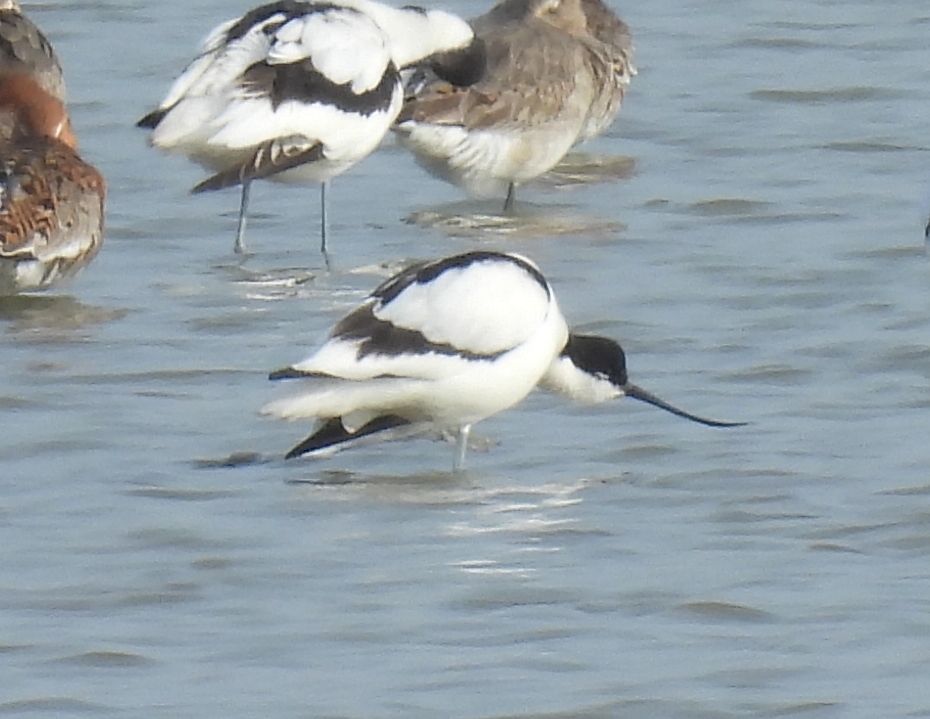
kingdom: Animalia
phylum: Chordata
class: Aves
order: Charadriiformes
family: Recurvirostridae
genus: Recurvirostra
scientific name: Recurvirostra avosetta
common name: Pied avocet
